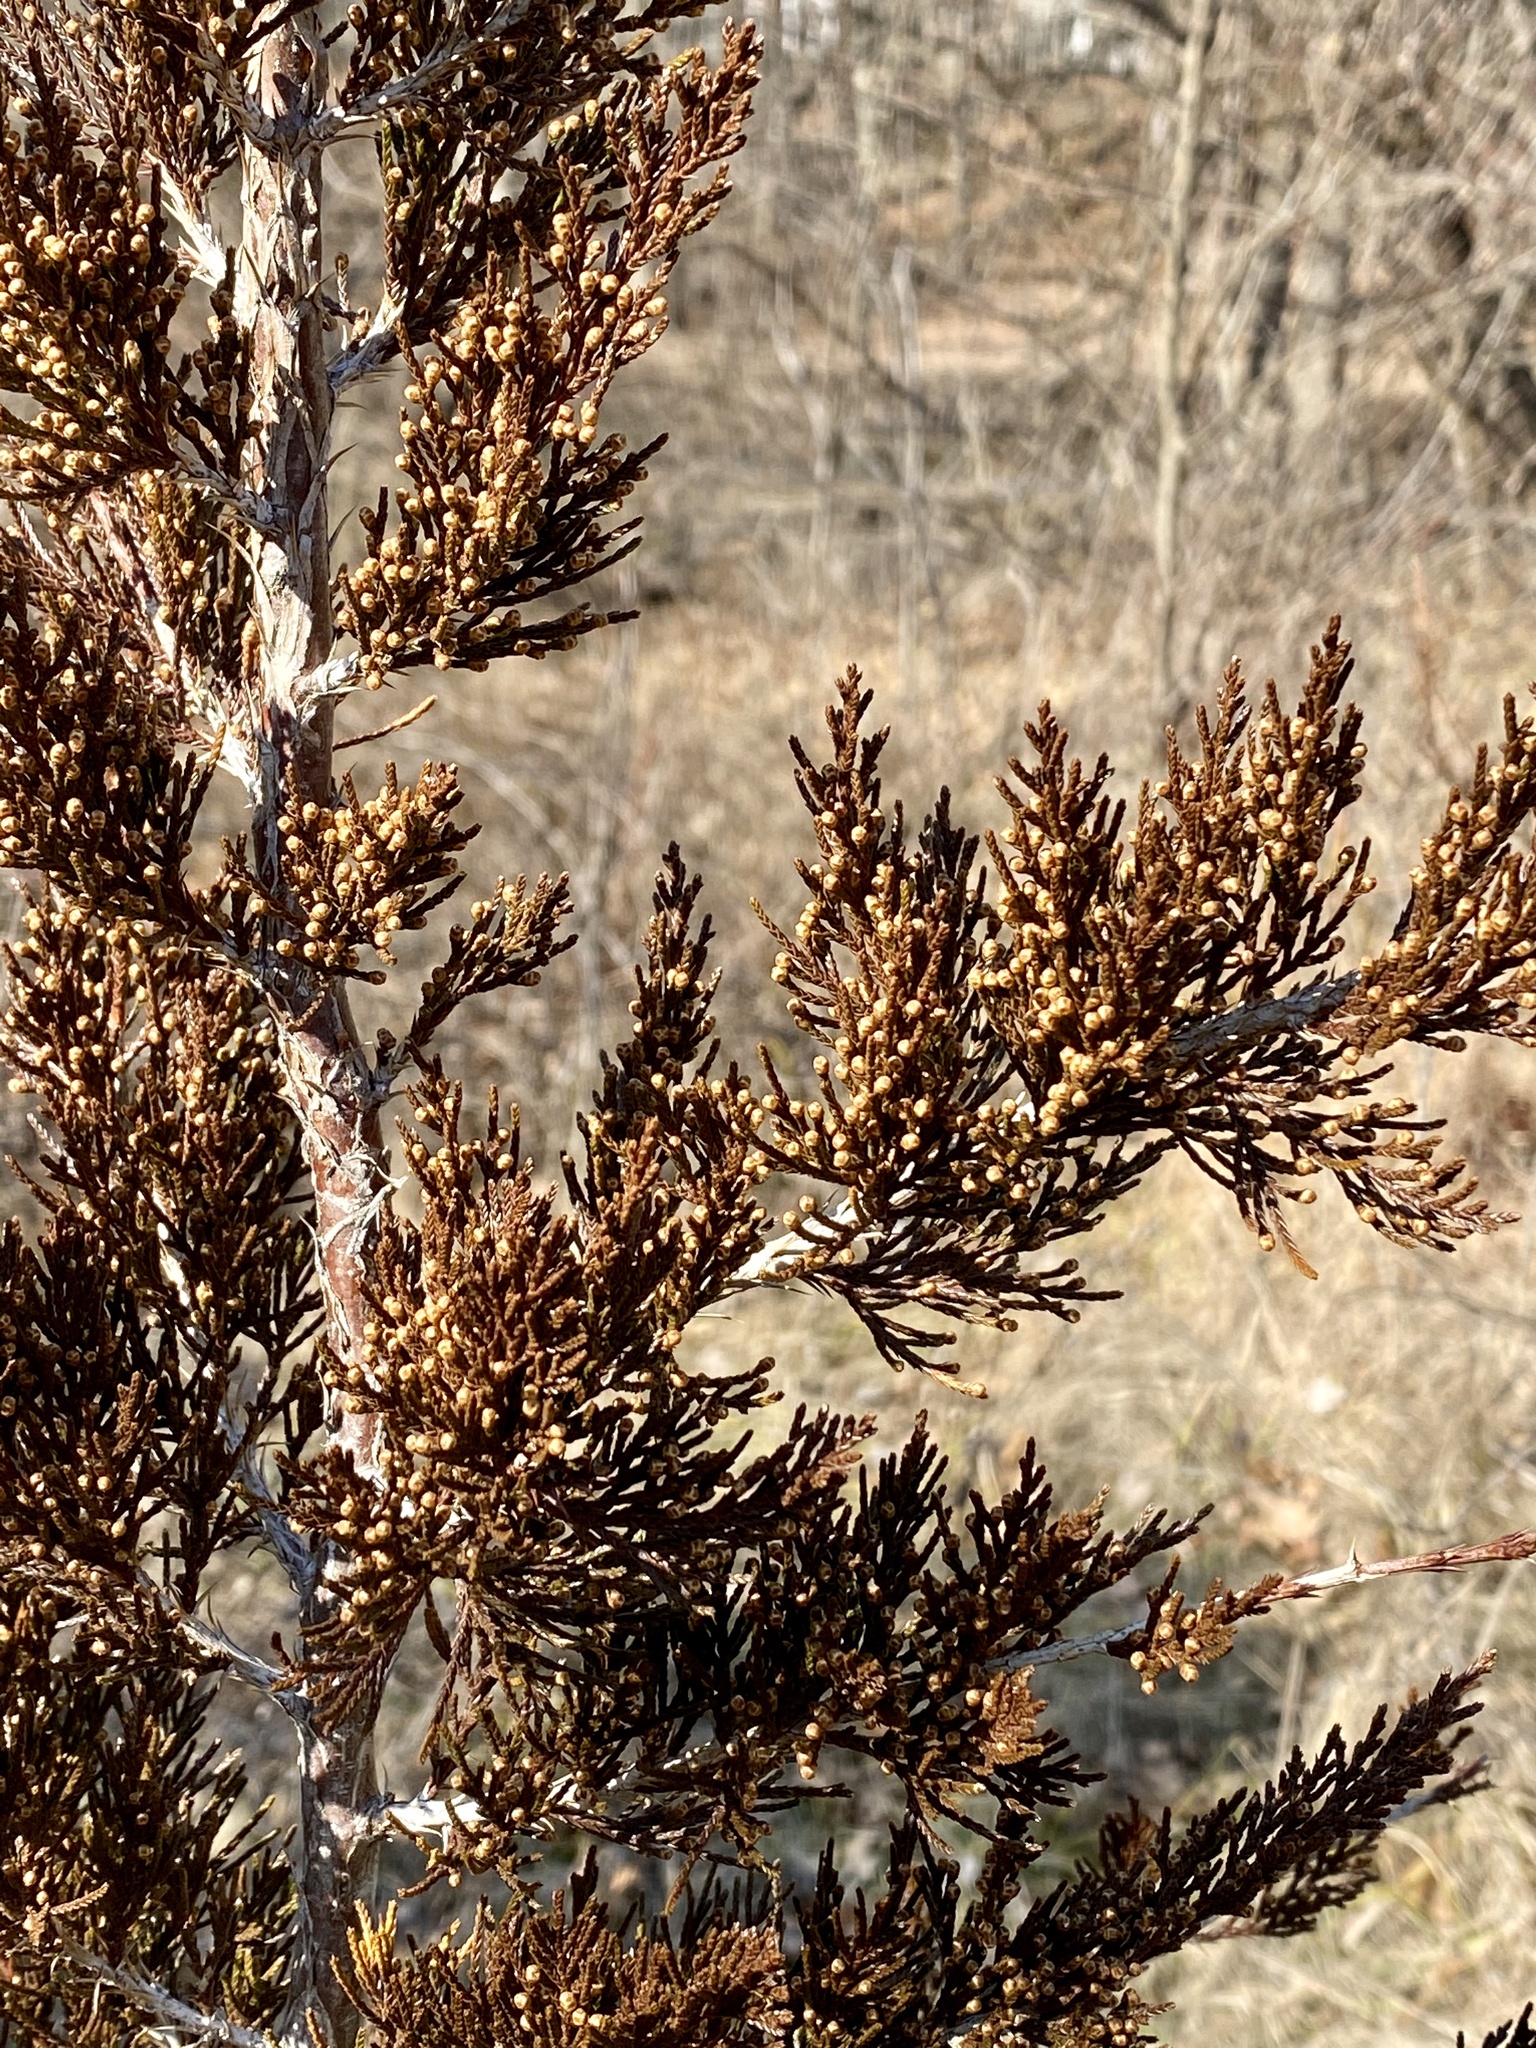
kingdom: Plantae
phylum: Tracheophyta
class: Pinopsida
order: Pinales
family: Cupressaceae
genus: Juniperus
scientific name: Juniperus virginiana
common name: Red juniper
